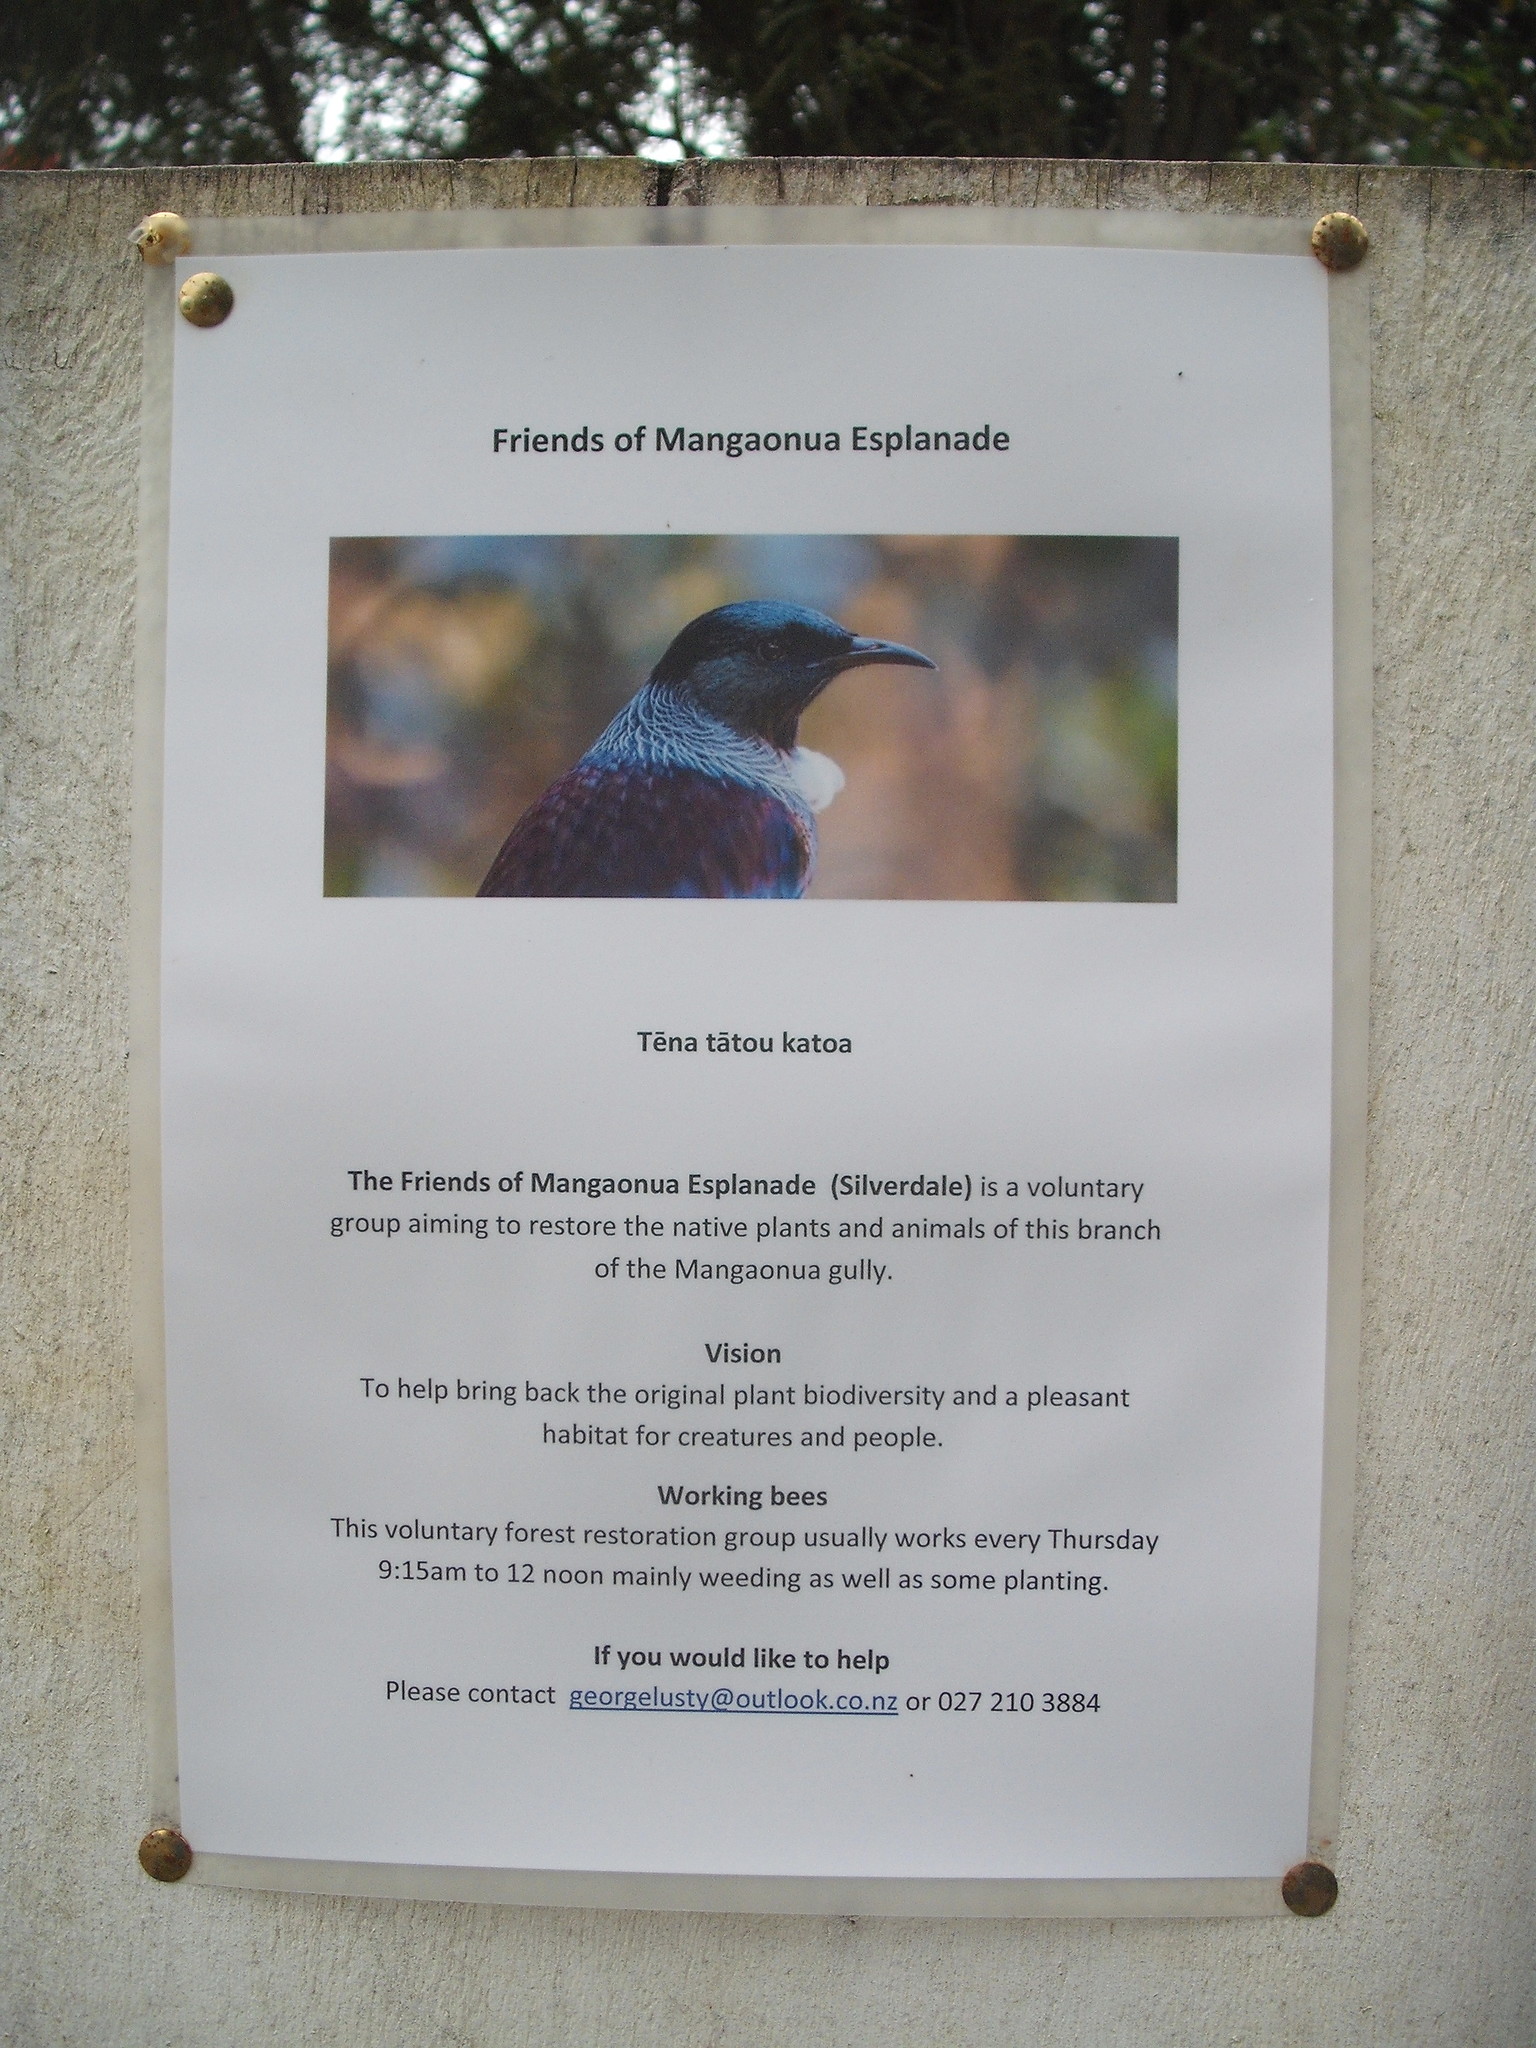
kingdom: Plantae
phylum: Tracheophyta
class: Polypodiopsida
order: Polypodiales
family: Pteridaceae
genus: Pteris
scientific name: Pteris cretica
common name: Ribbon fern
